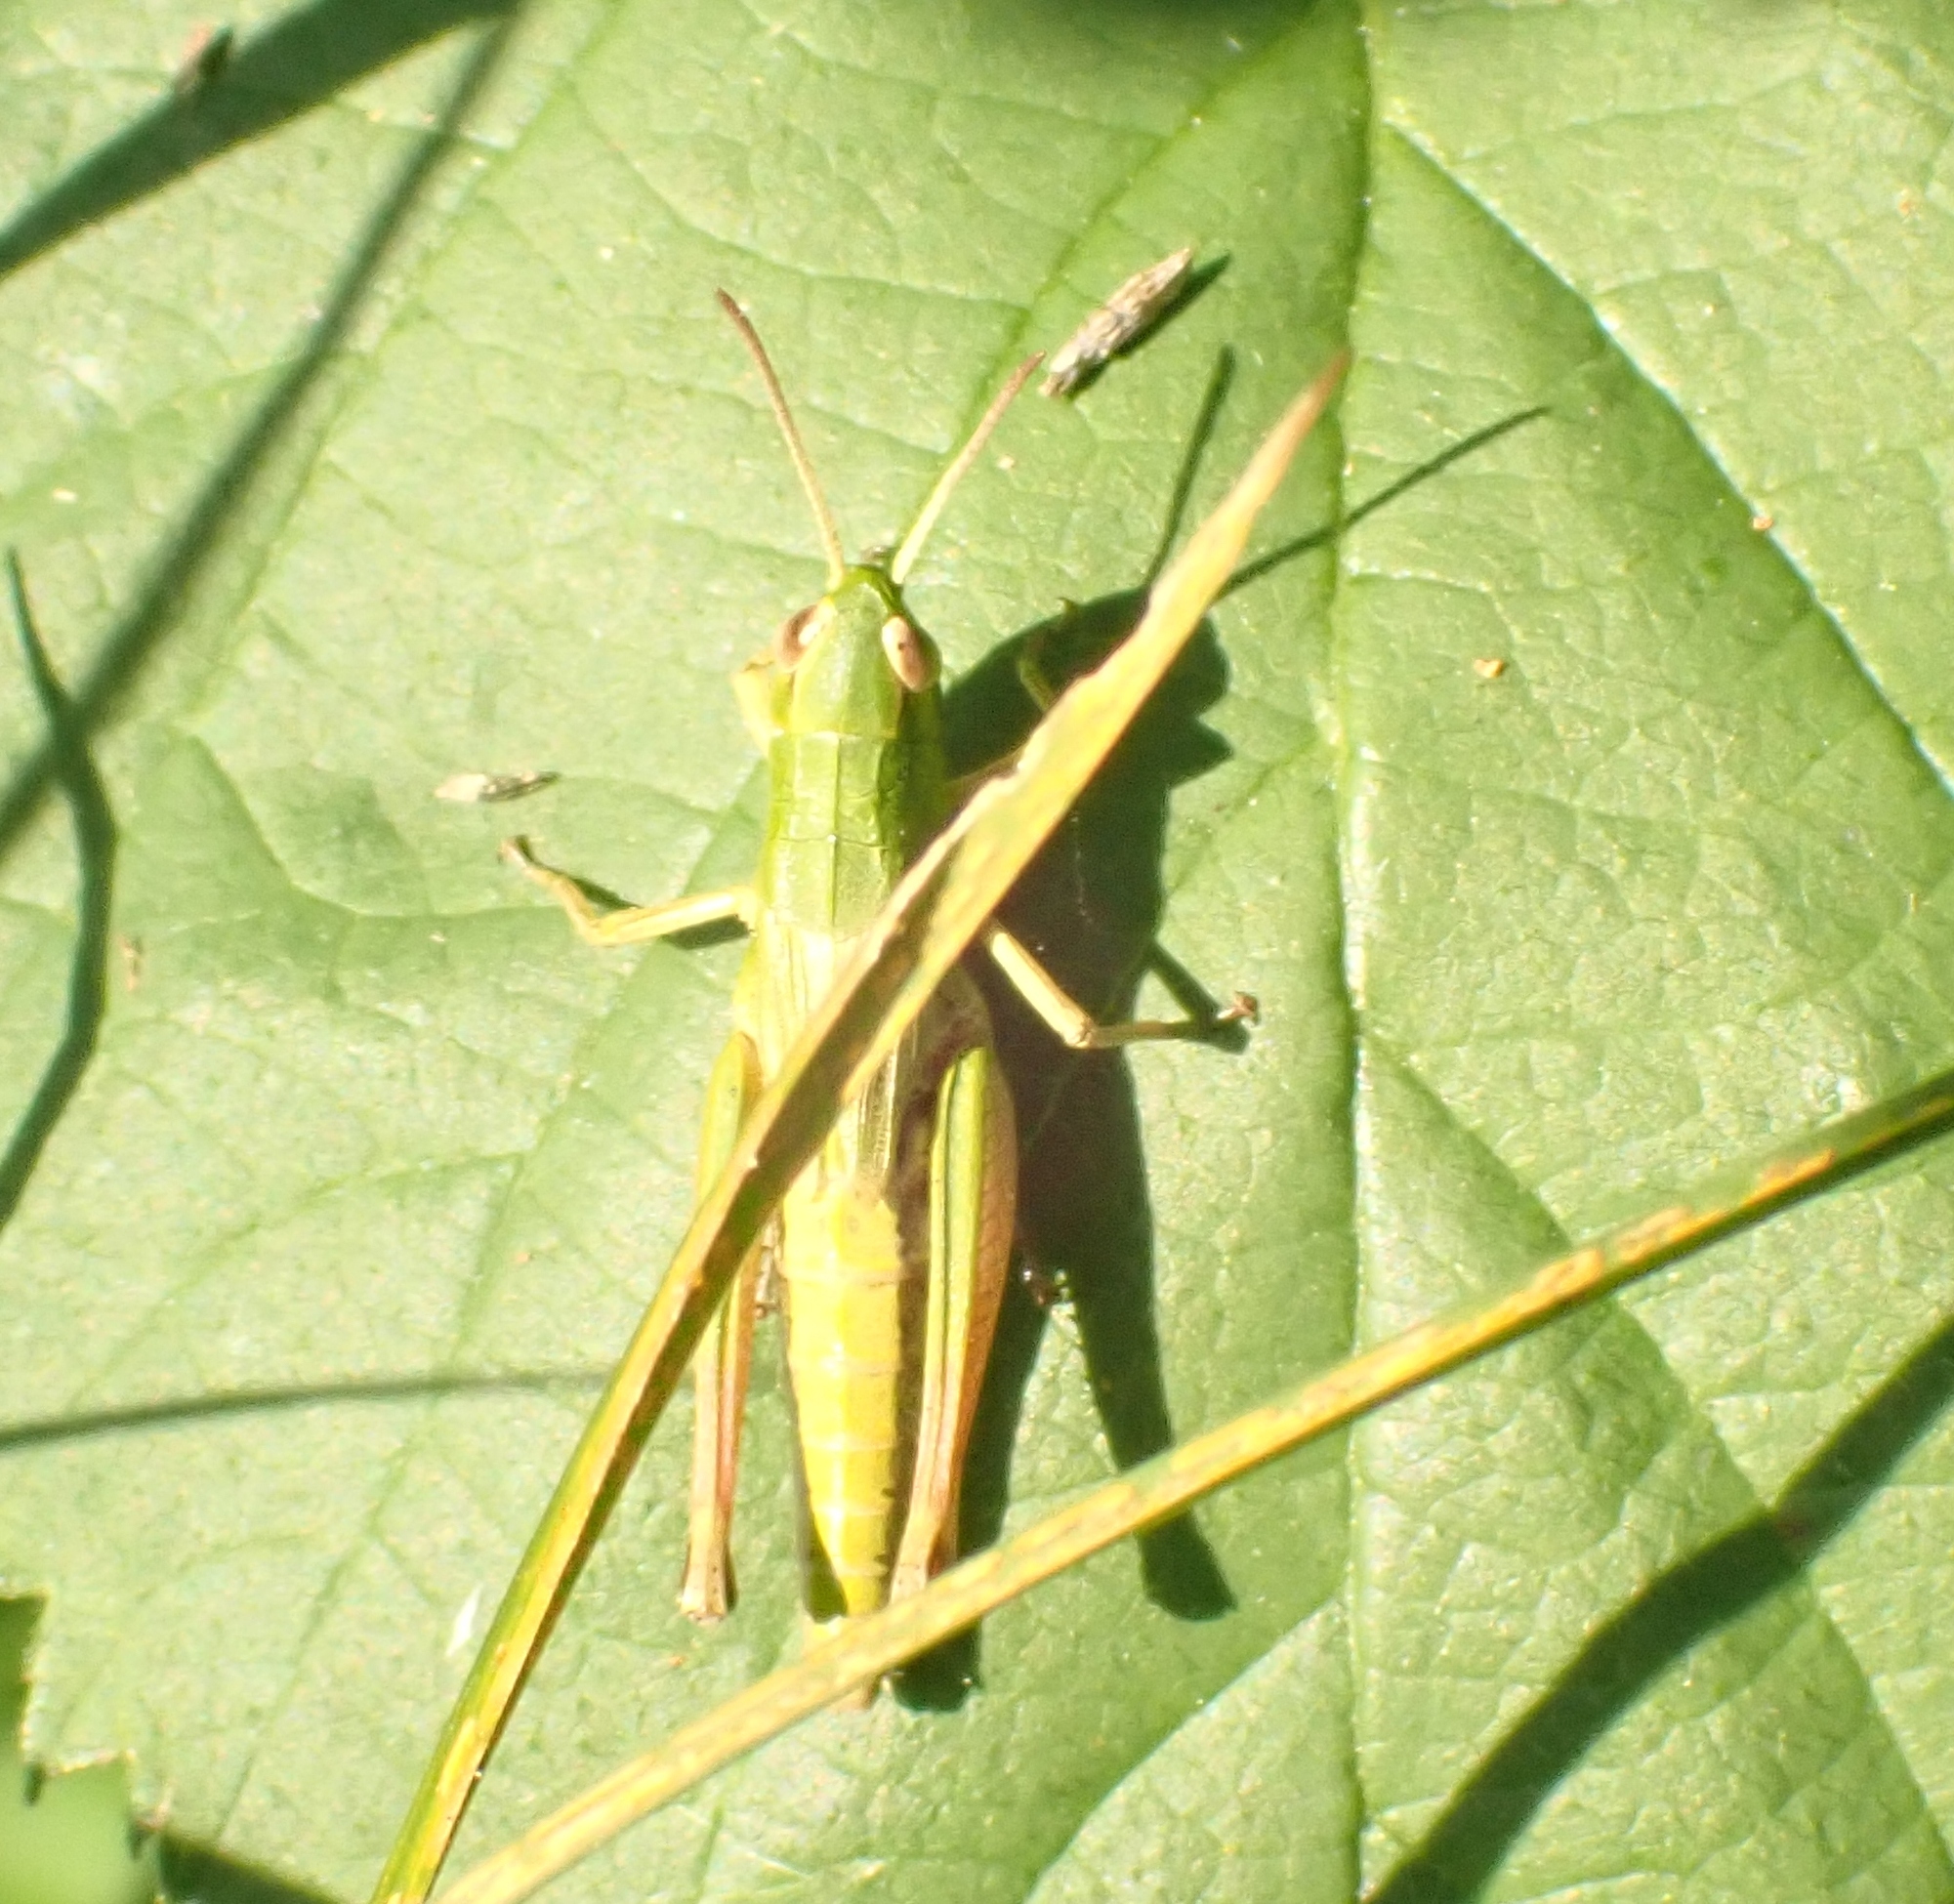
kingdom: Animalia
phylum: Arthropoda
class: Insecta
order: Orthoptera
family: Acrididae
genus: Pseudochorthippus
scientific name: Pseudochorthippus parallelus
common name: Meadow grasshopper
